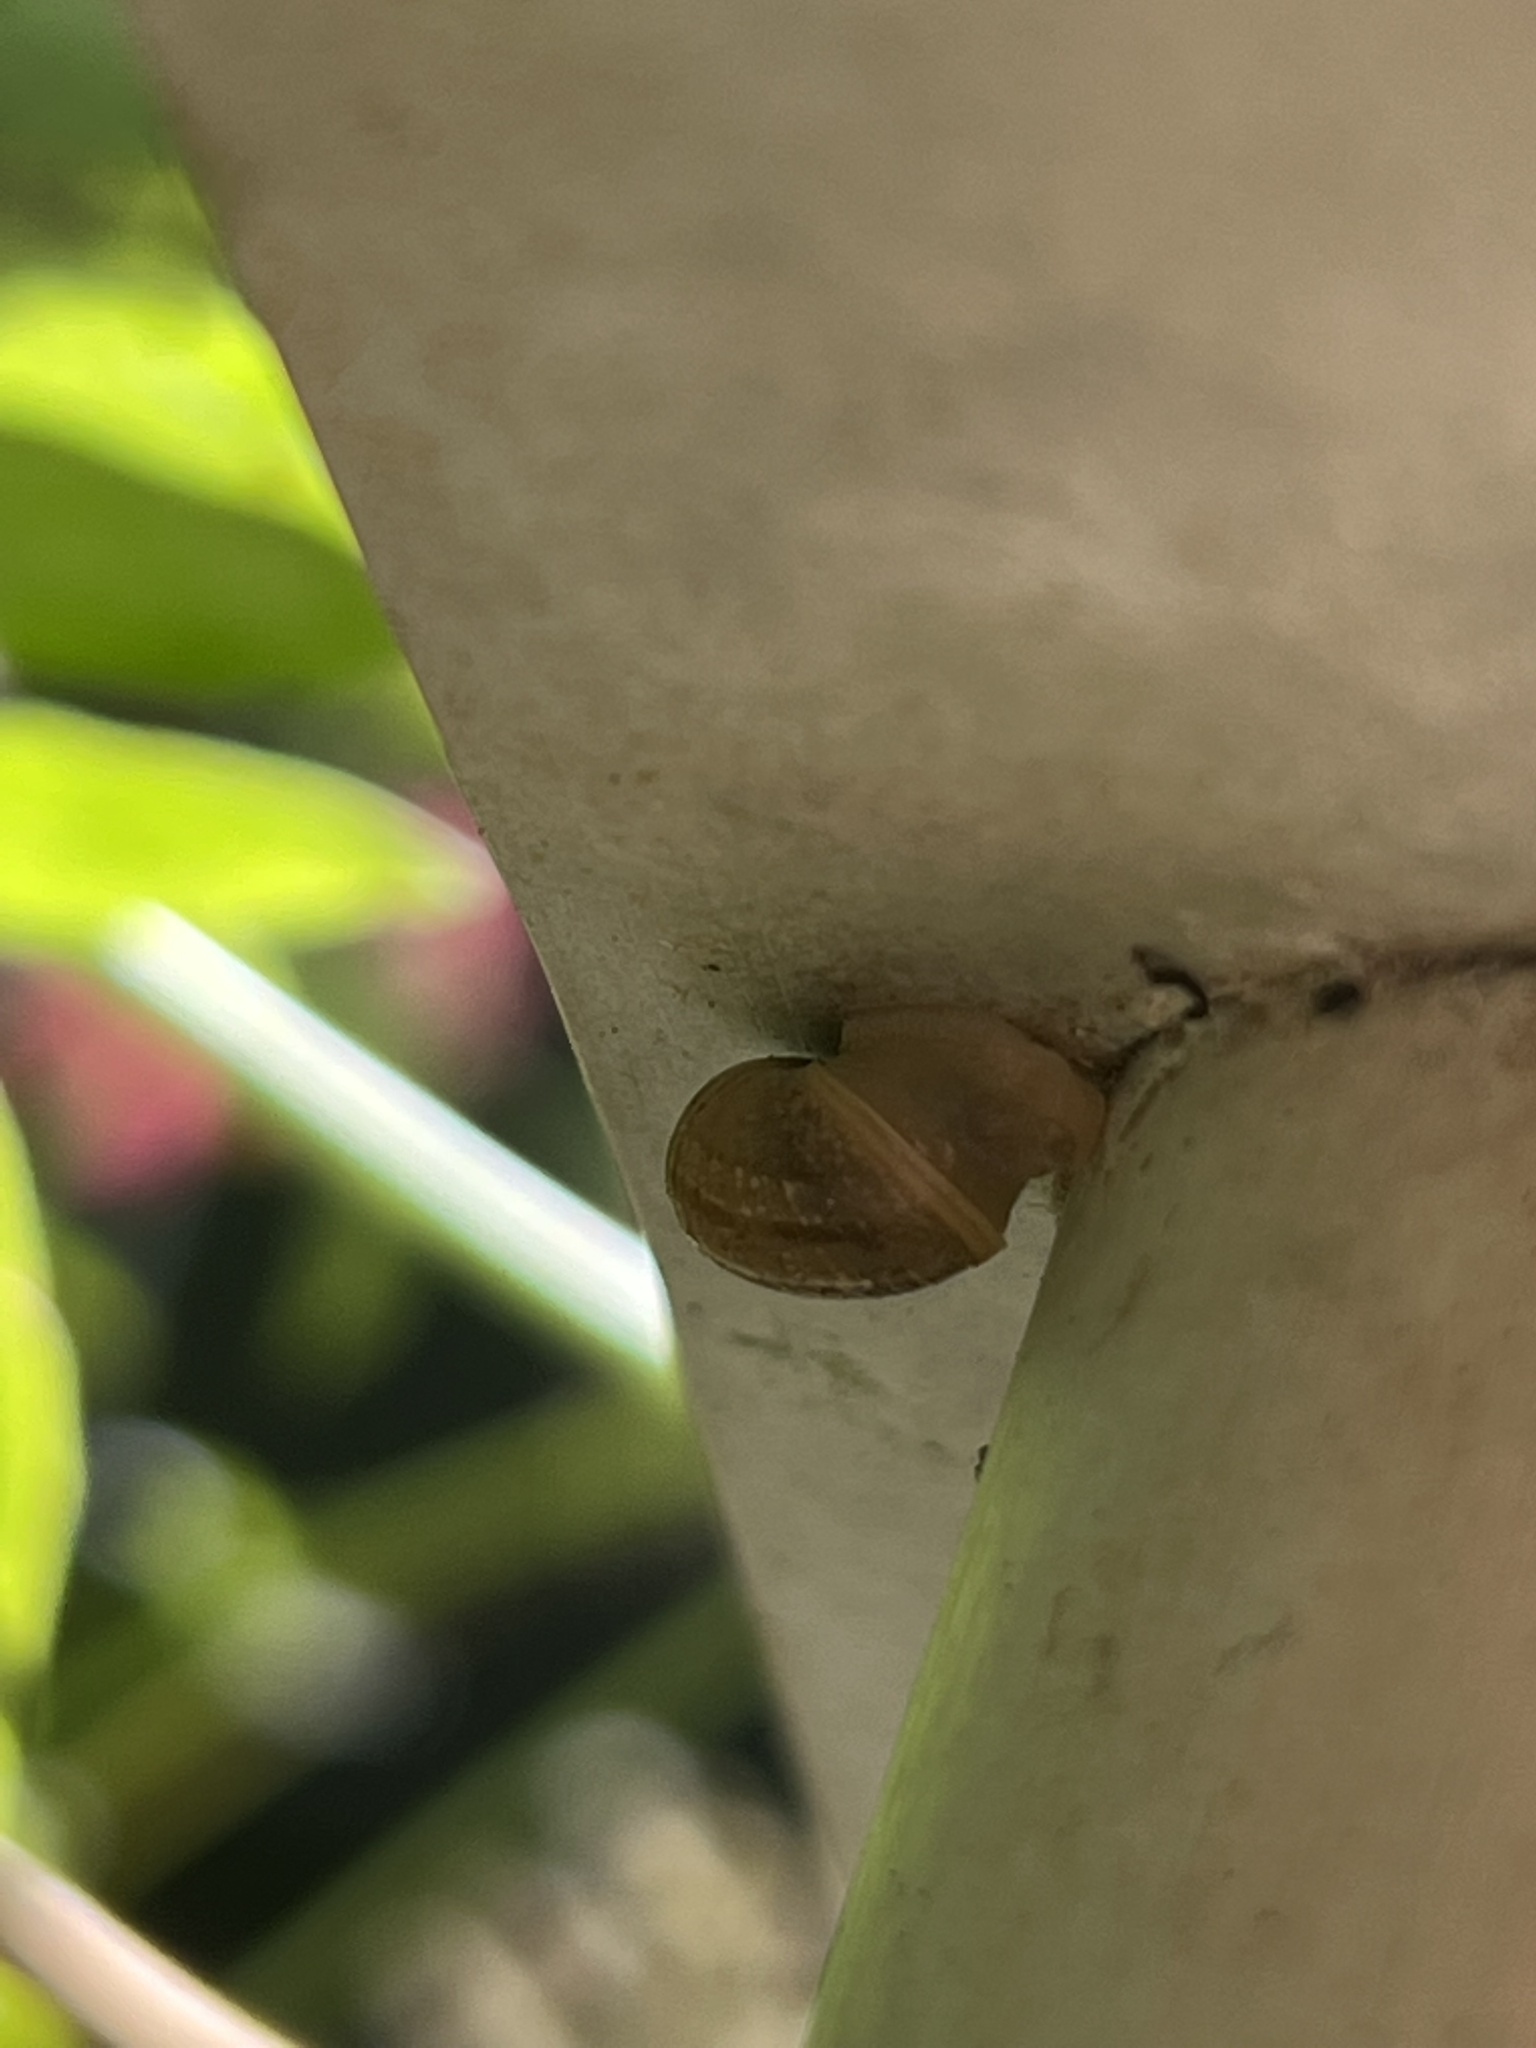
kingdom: Animalia
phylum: Mollusca
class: Gastropoda
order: Stylommatophora
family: Helicidae
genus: Cornu
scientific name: Cornu aspersum
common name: Brown garden snail
